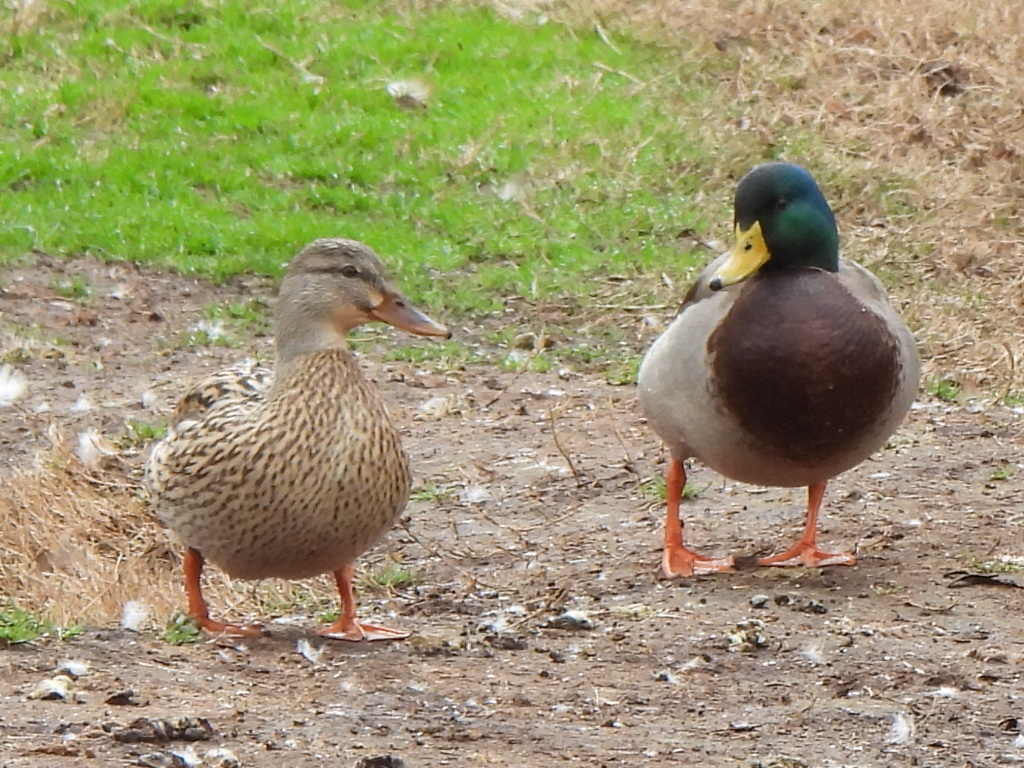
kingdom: Animalia
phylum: Chordata
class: Aves
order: Anseriformes
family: Anatidae
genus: Anas
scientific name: Anas platyrhynchos
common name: Mallard
